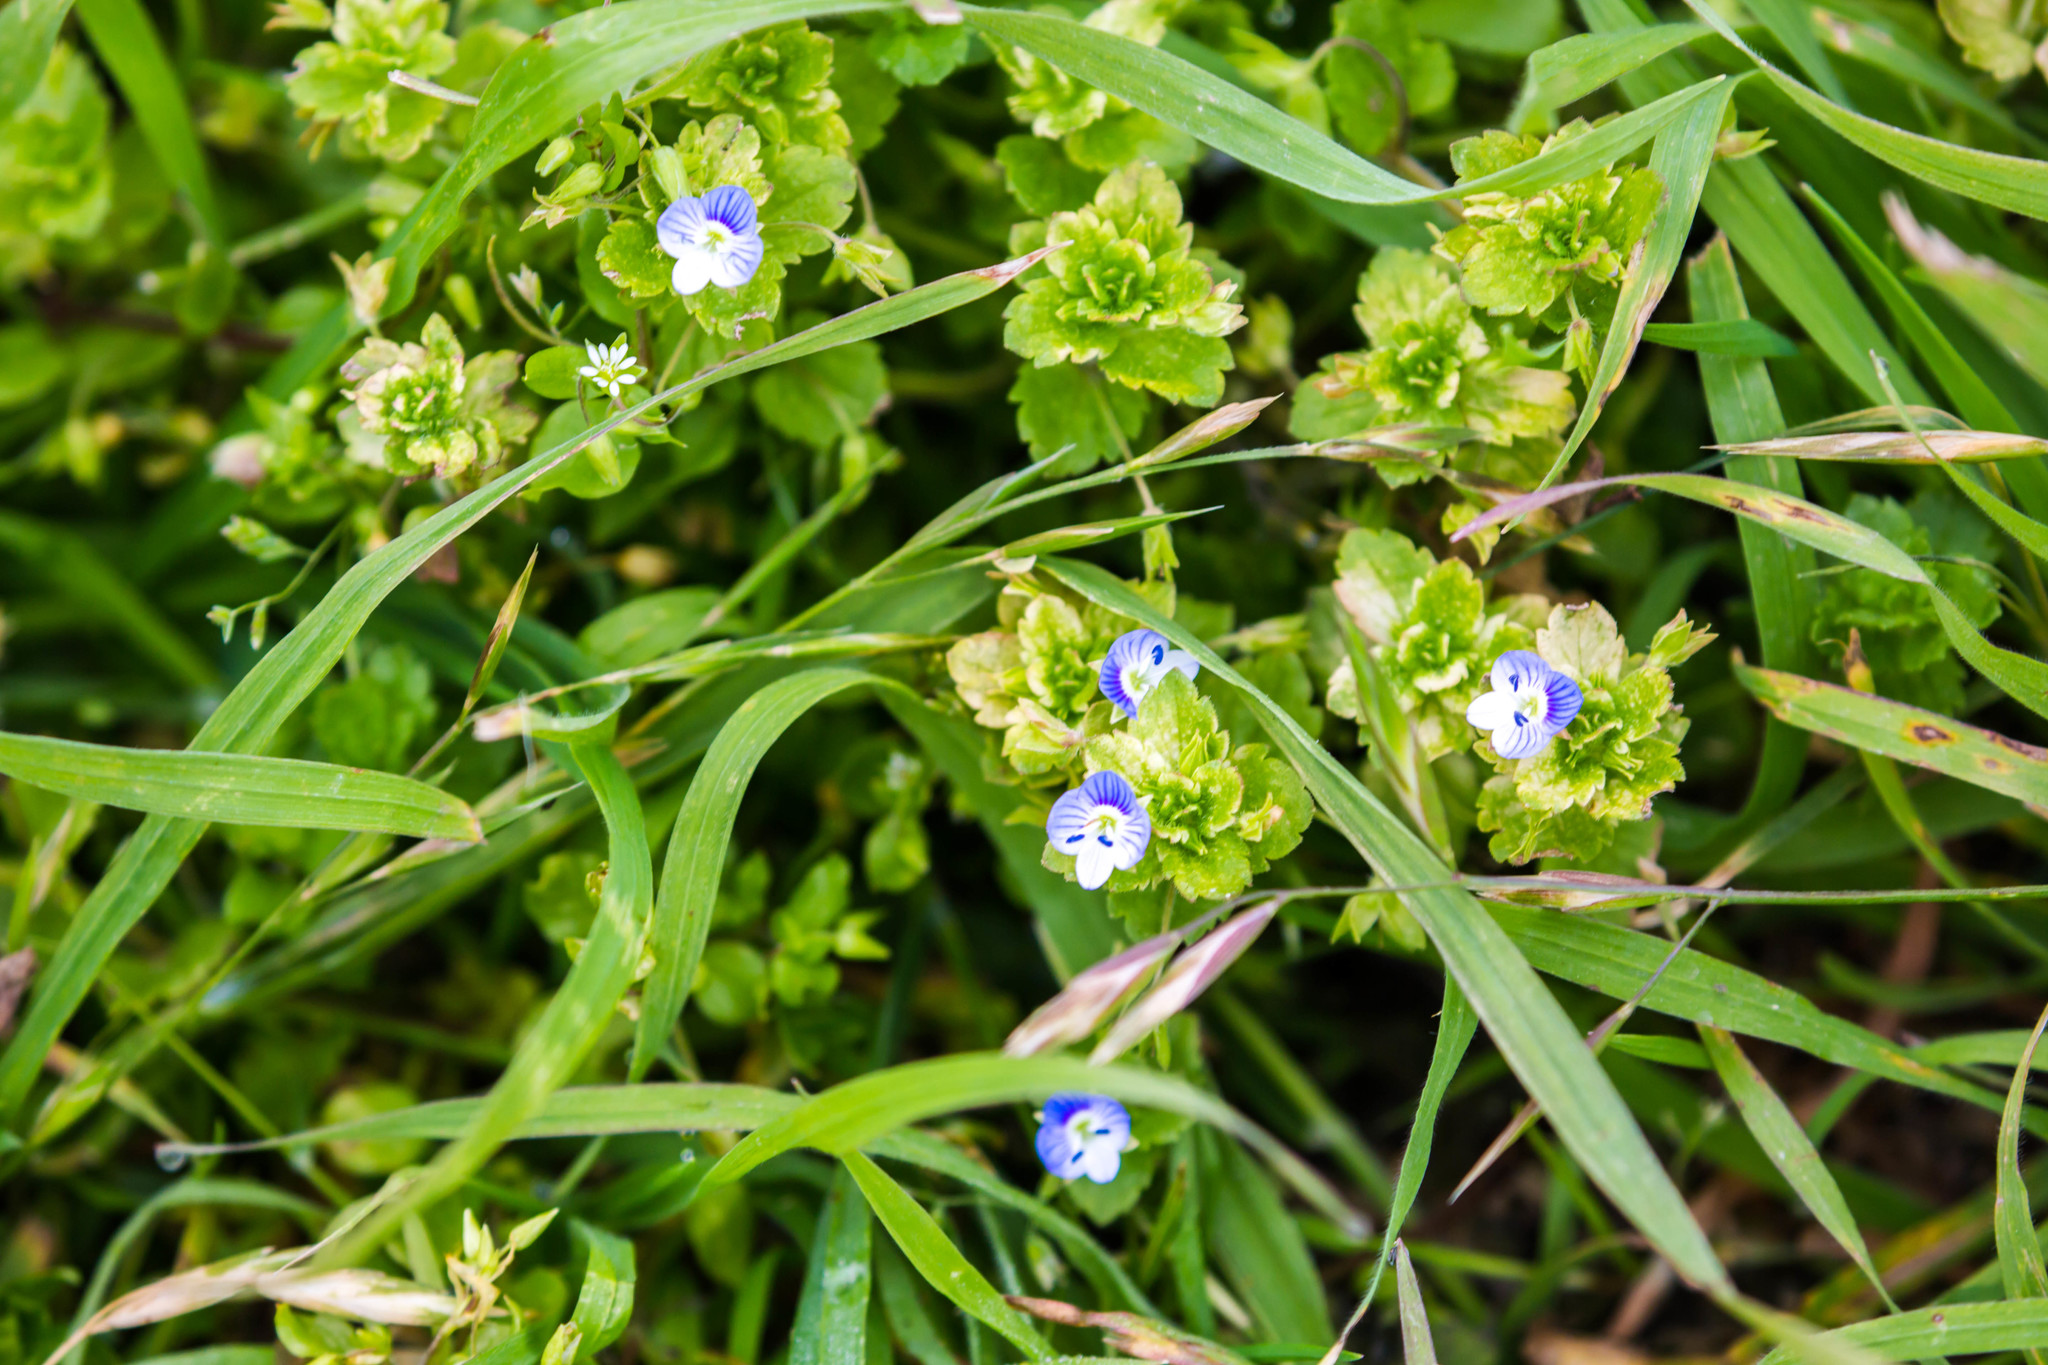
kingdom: Plantae
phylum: Tracheophyta
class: Magnoliopsida
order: Lamiales
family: Plantaginaceae
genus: Veronica
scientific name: Veronica persica
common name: Common field-speedwell
